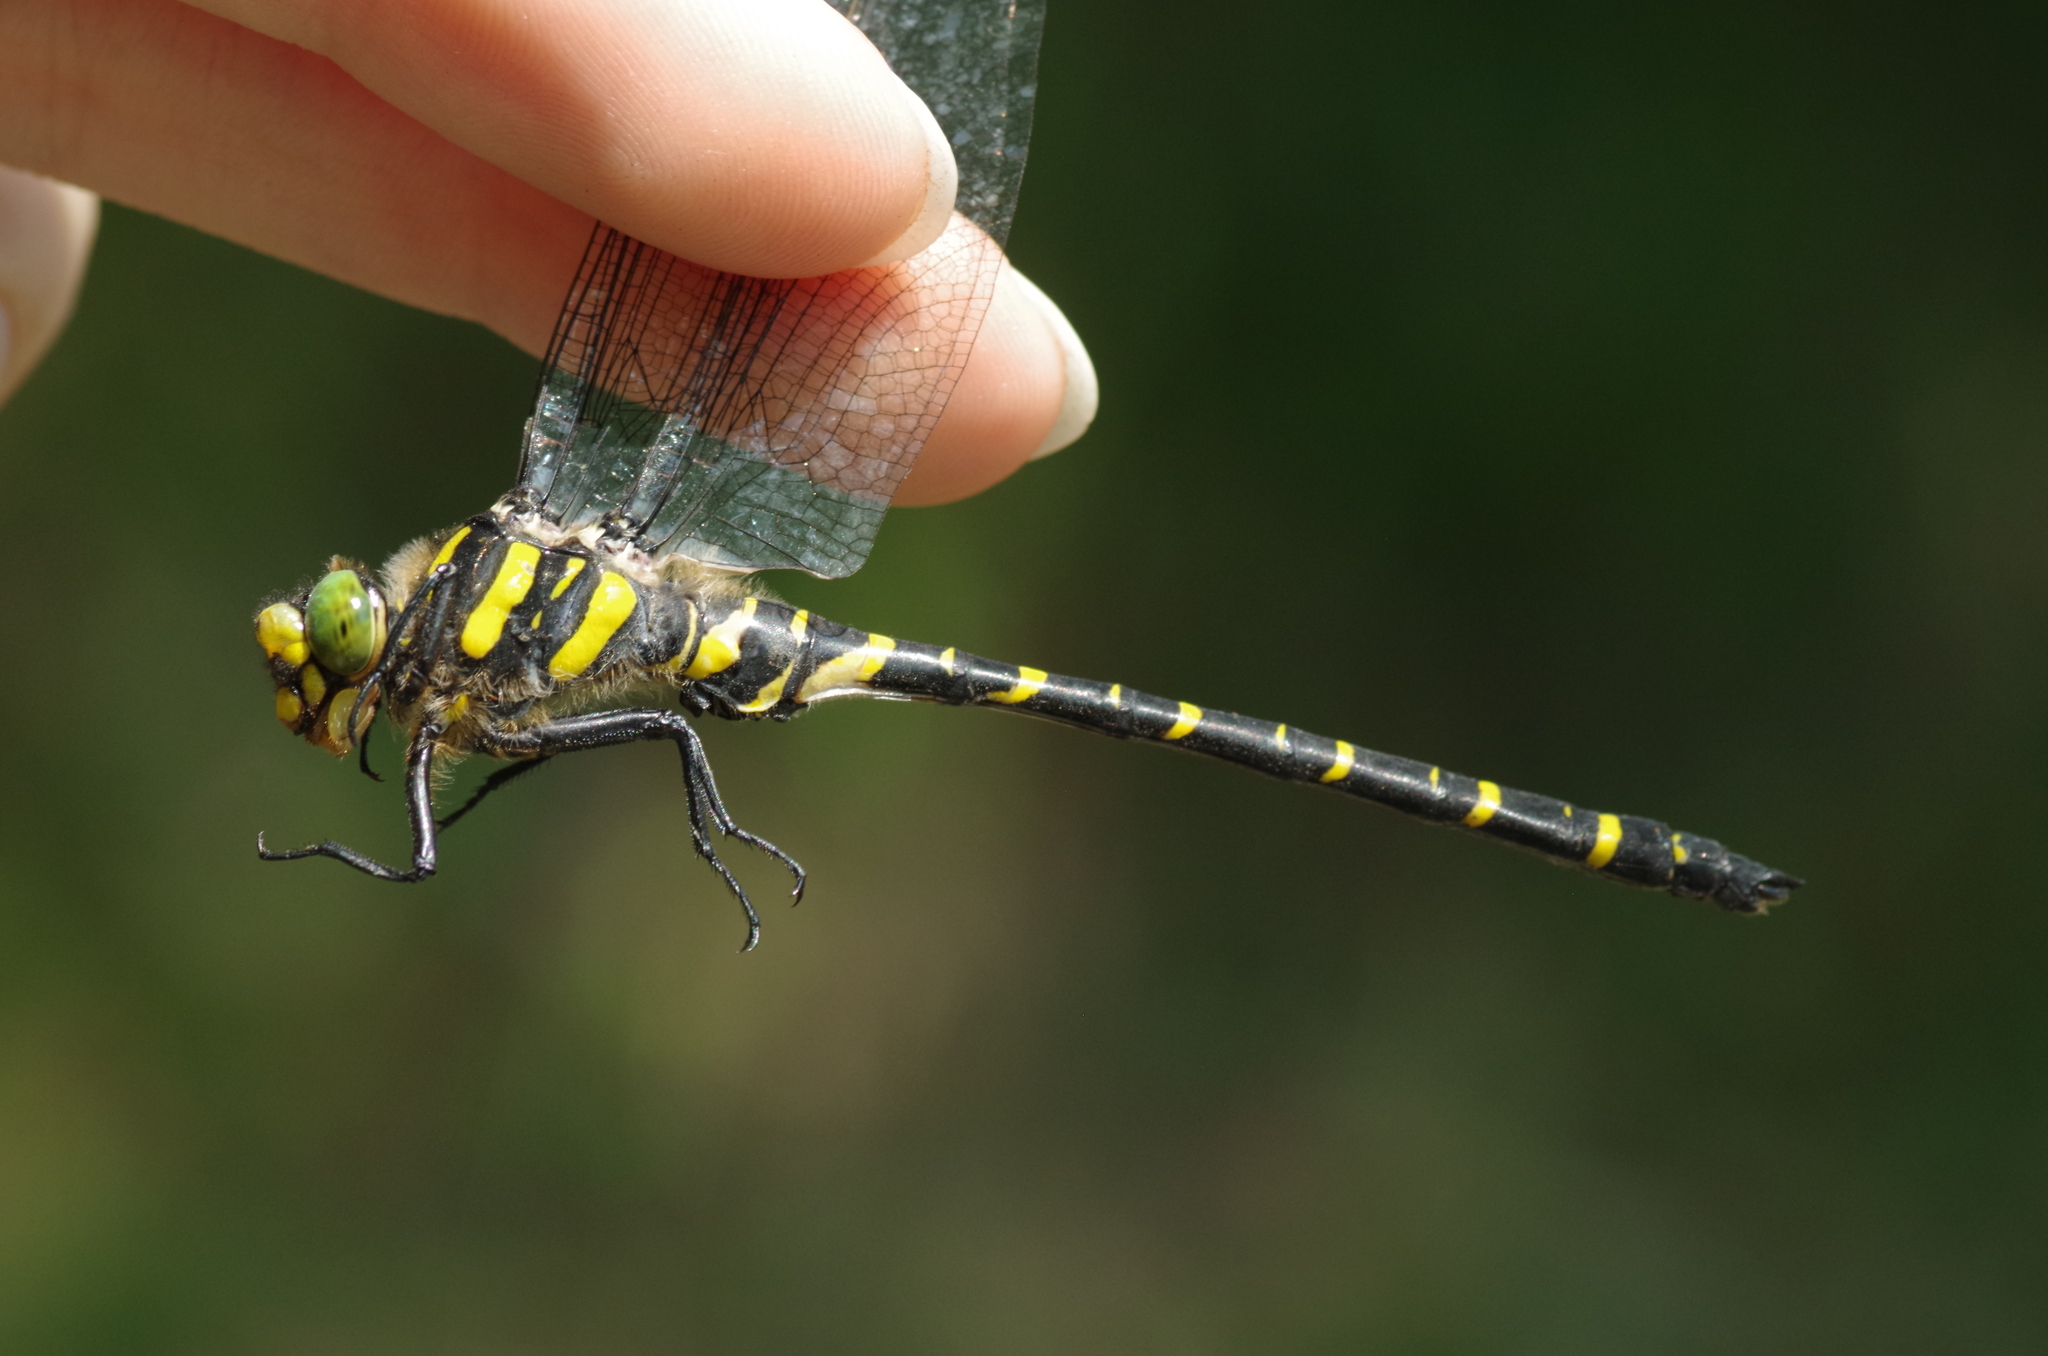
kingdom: Animalia
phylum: Arthropoda
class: Insecta
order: Odonata
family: Cordulegastridae
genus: Cordulegaster
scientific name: Cordulegaster boltonii
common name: Golden-ringed dragonfly
